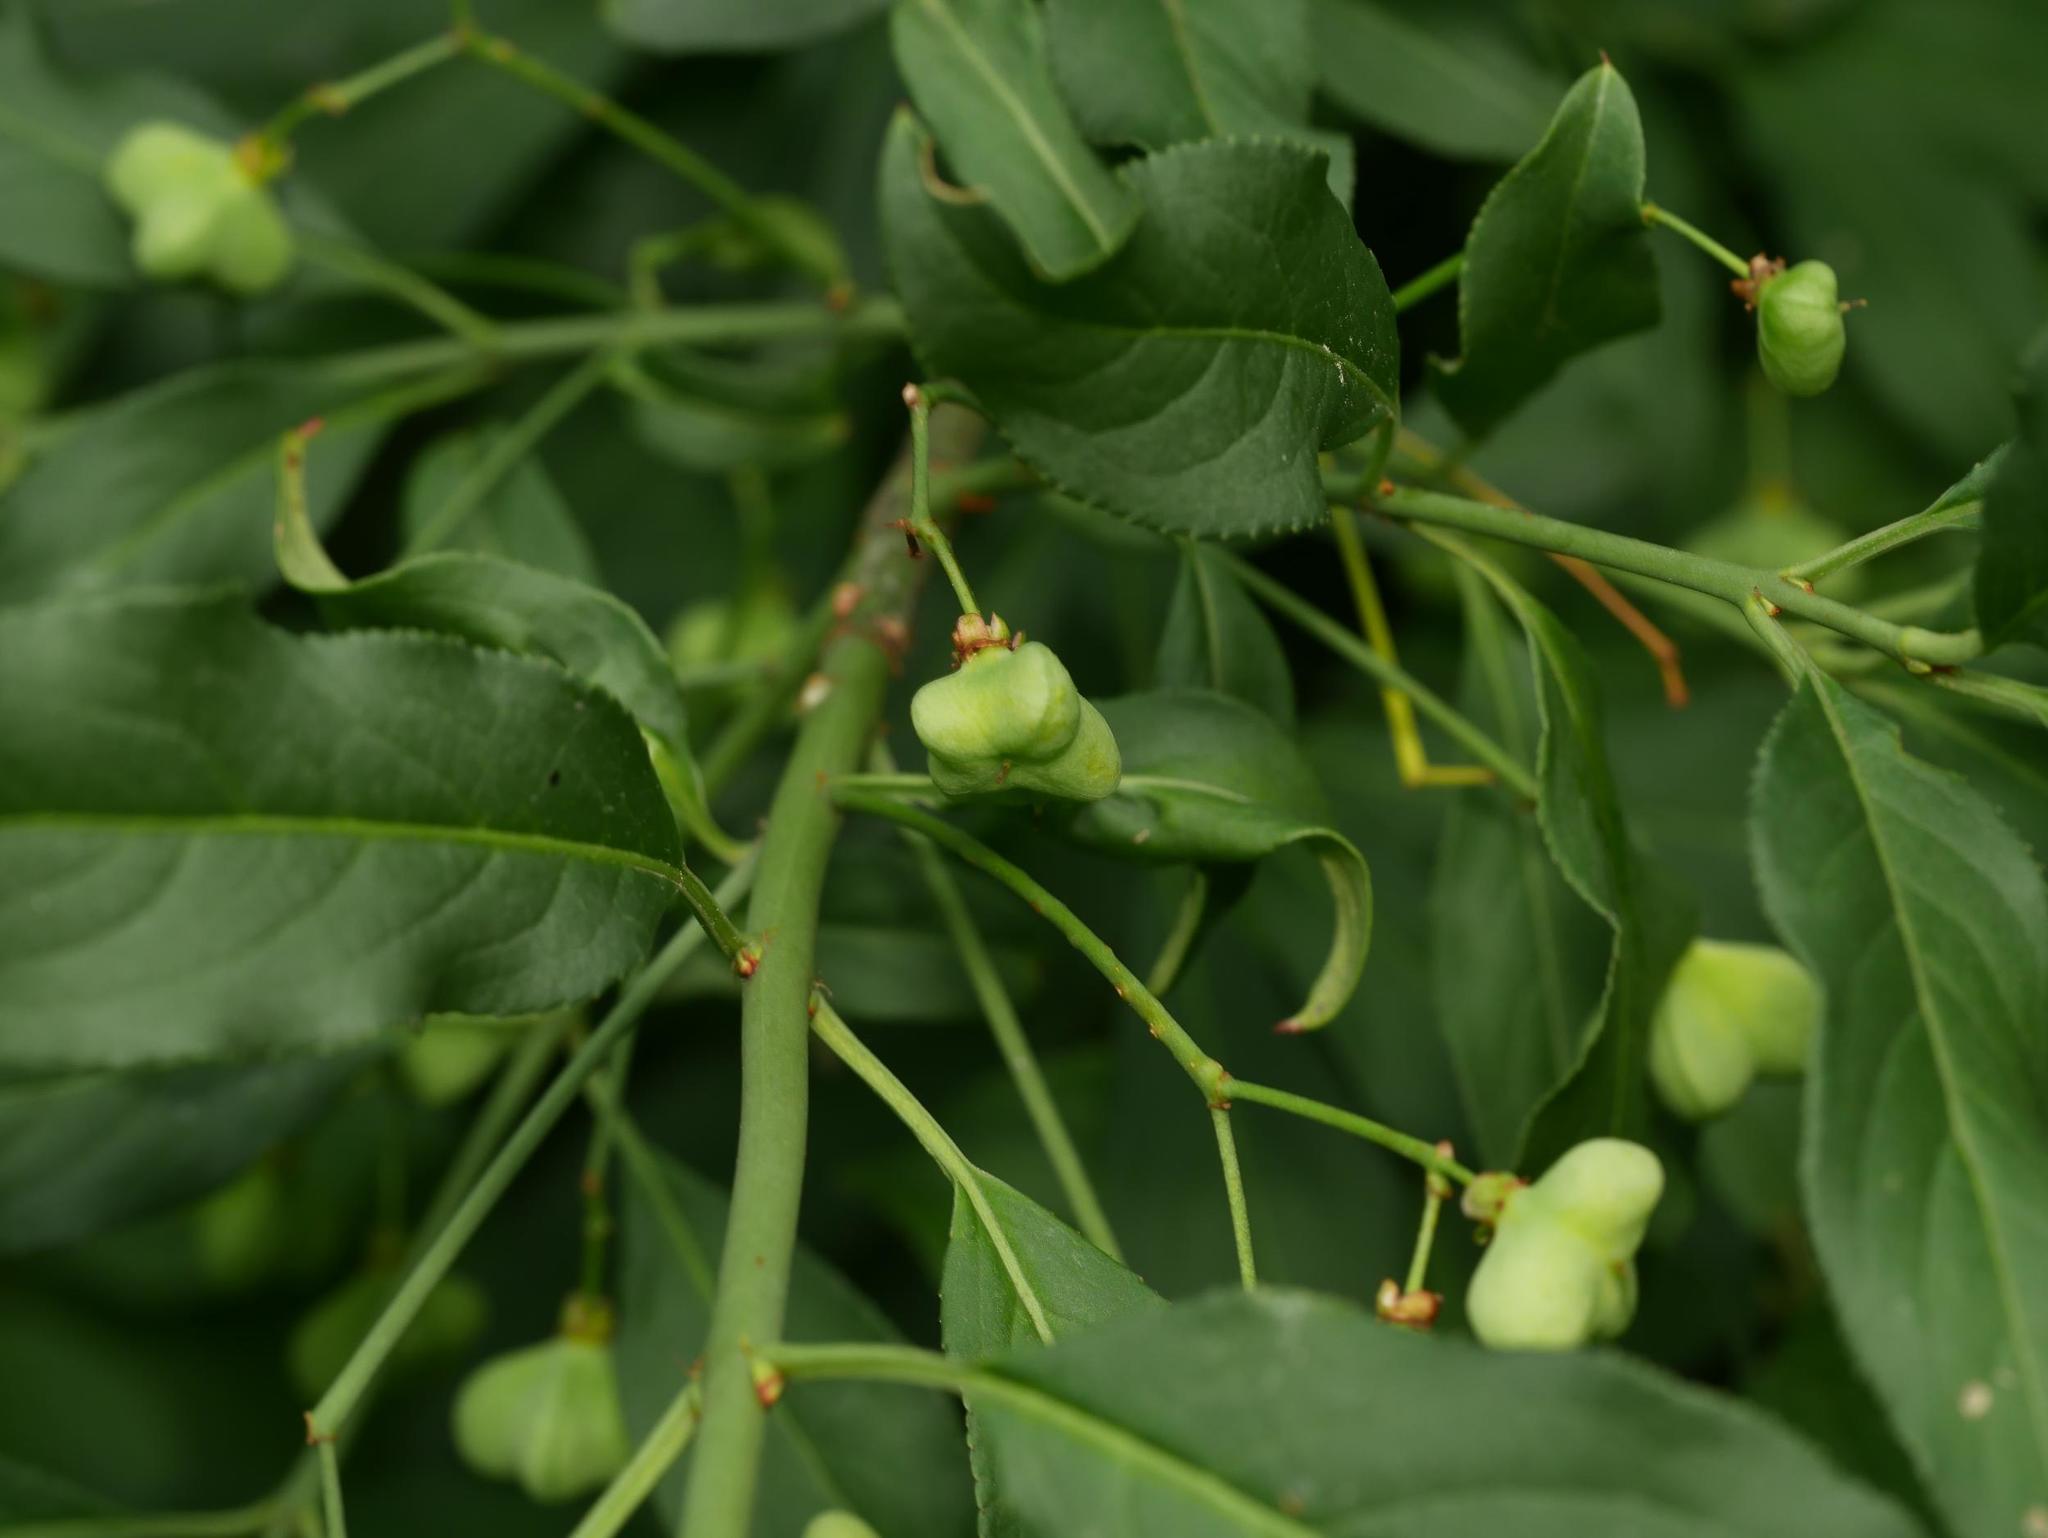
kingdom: Plantae
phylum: Tracheophyta
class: Magnoliopsida
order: Celastrales
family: Celastraceae
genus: Euonymus
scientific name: Euonymus europaeus
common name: Spindle
